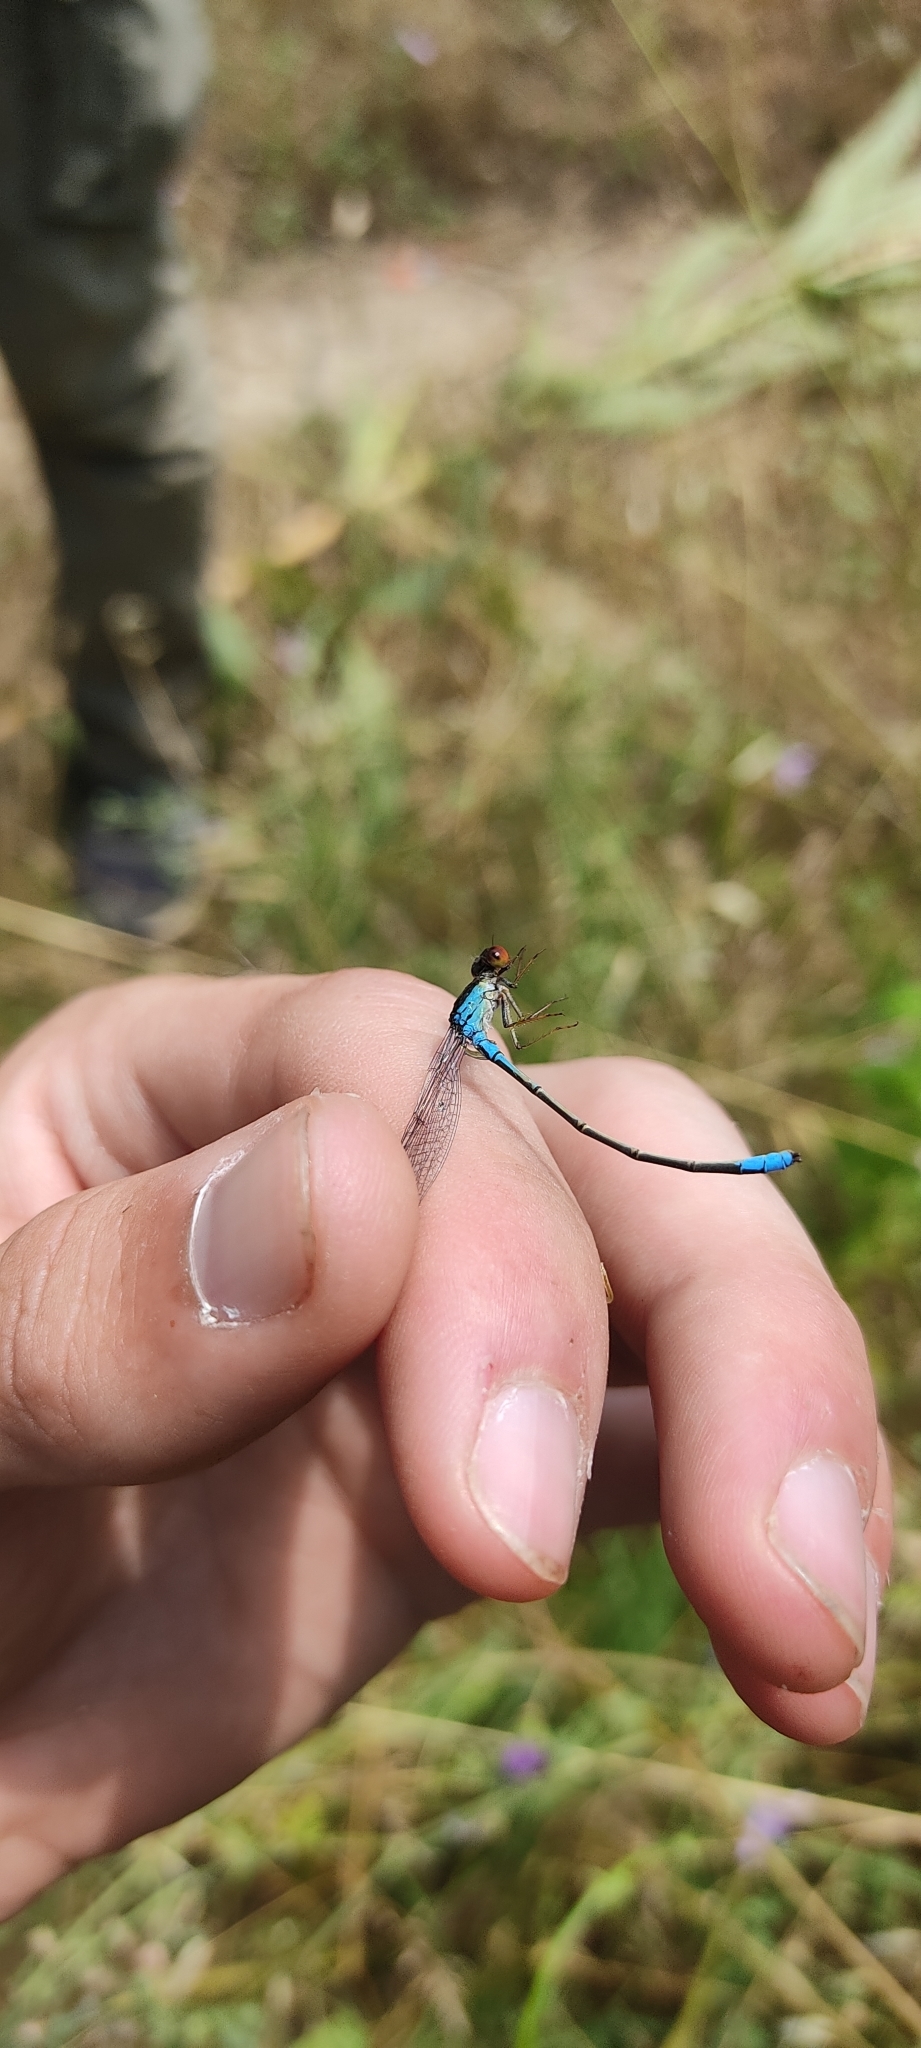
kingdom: Animalia
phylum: Arthropoda
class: Insecta
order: Odonata
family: Coenagrionidae
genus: Erythromma
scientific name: Erythromma viridulum
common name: Small red-eyed damselfly
